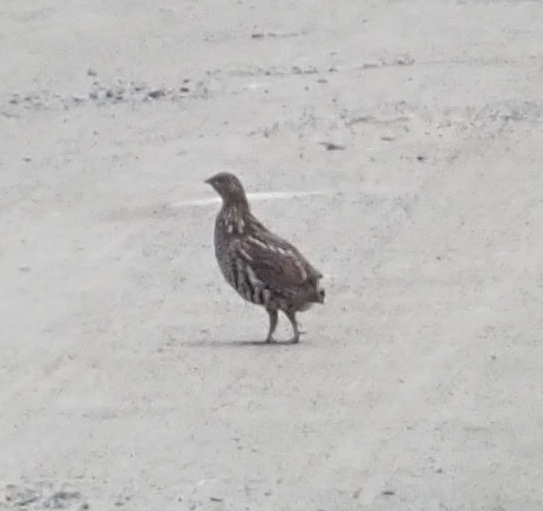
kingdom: Animalia
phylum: Chordata
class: Aves
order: Galliformes
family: Phasianidae
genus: Bonasa
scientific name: Bonasa umbellus
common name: Ruffed grouse
